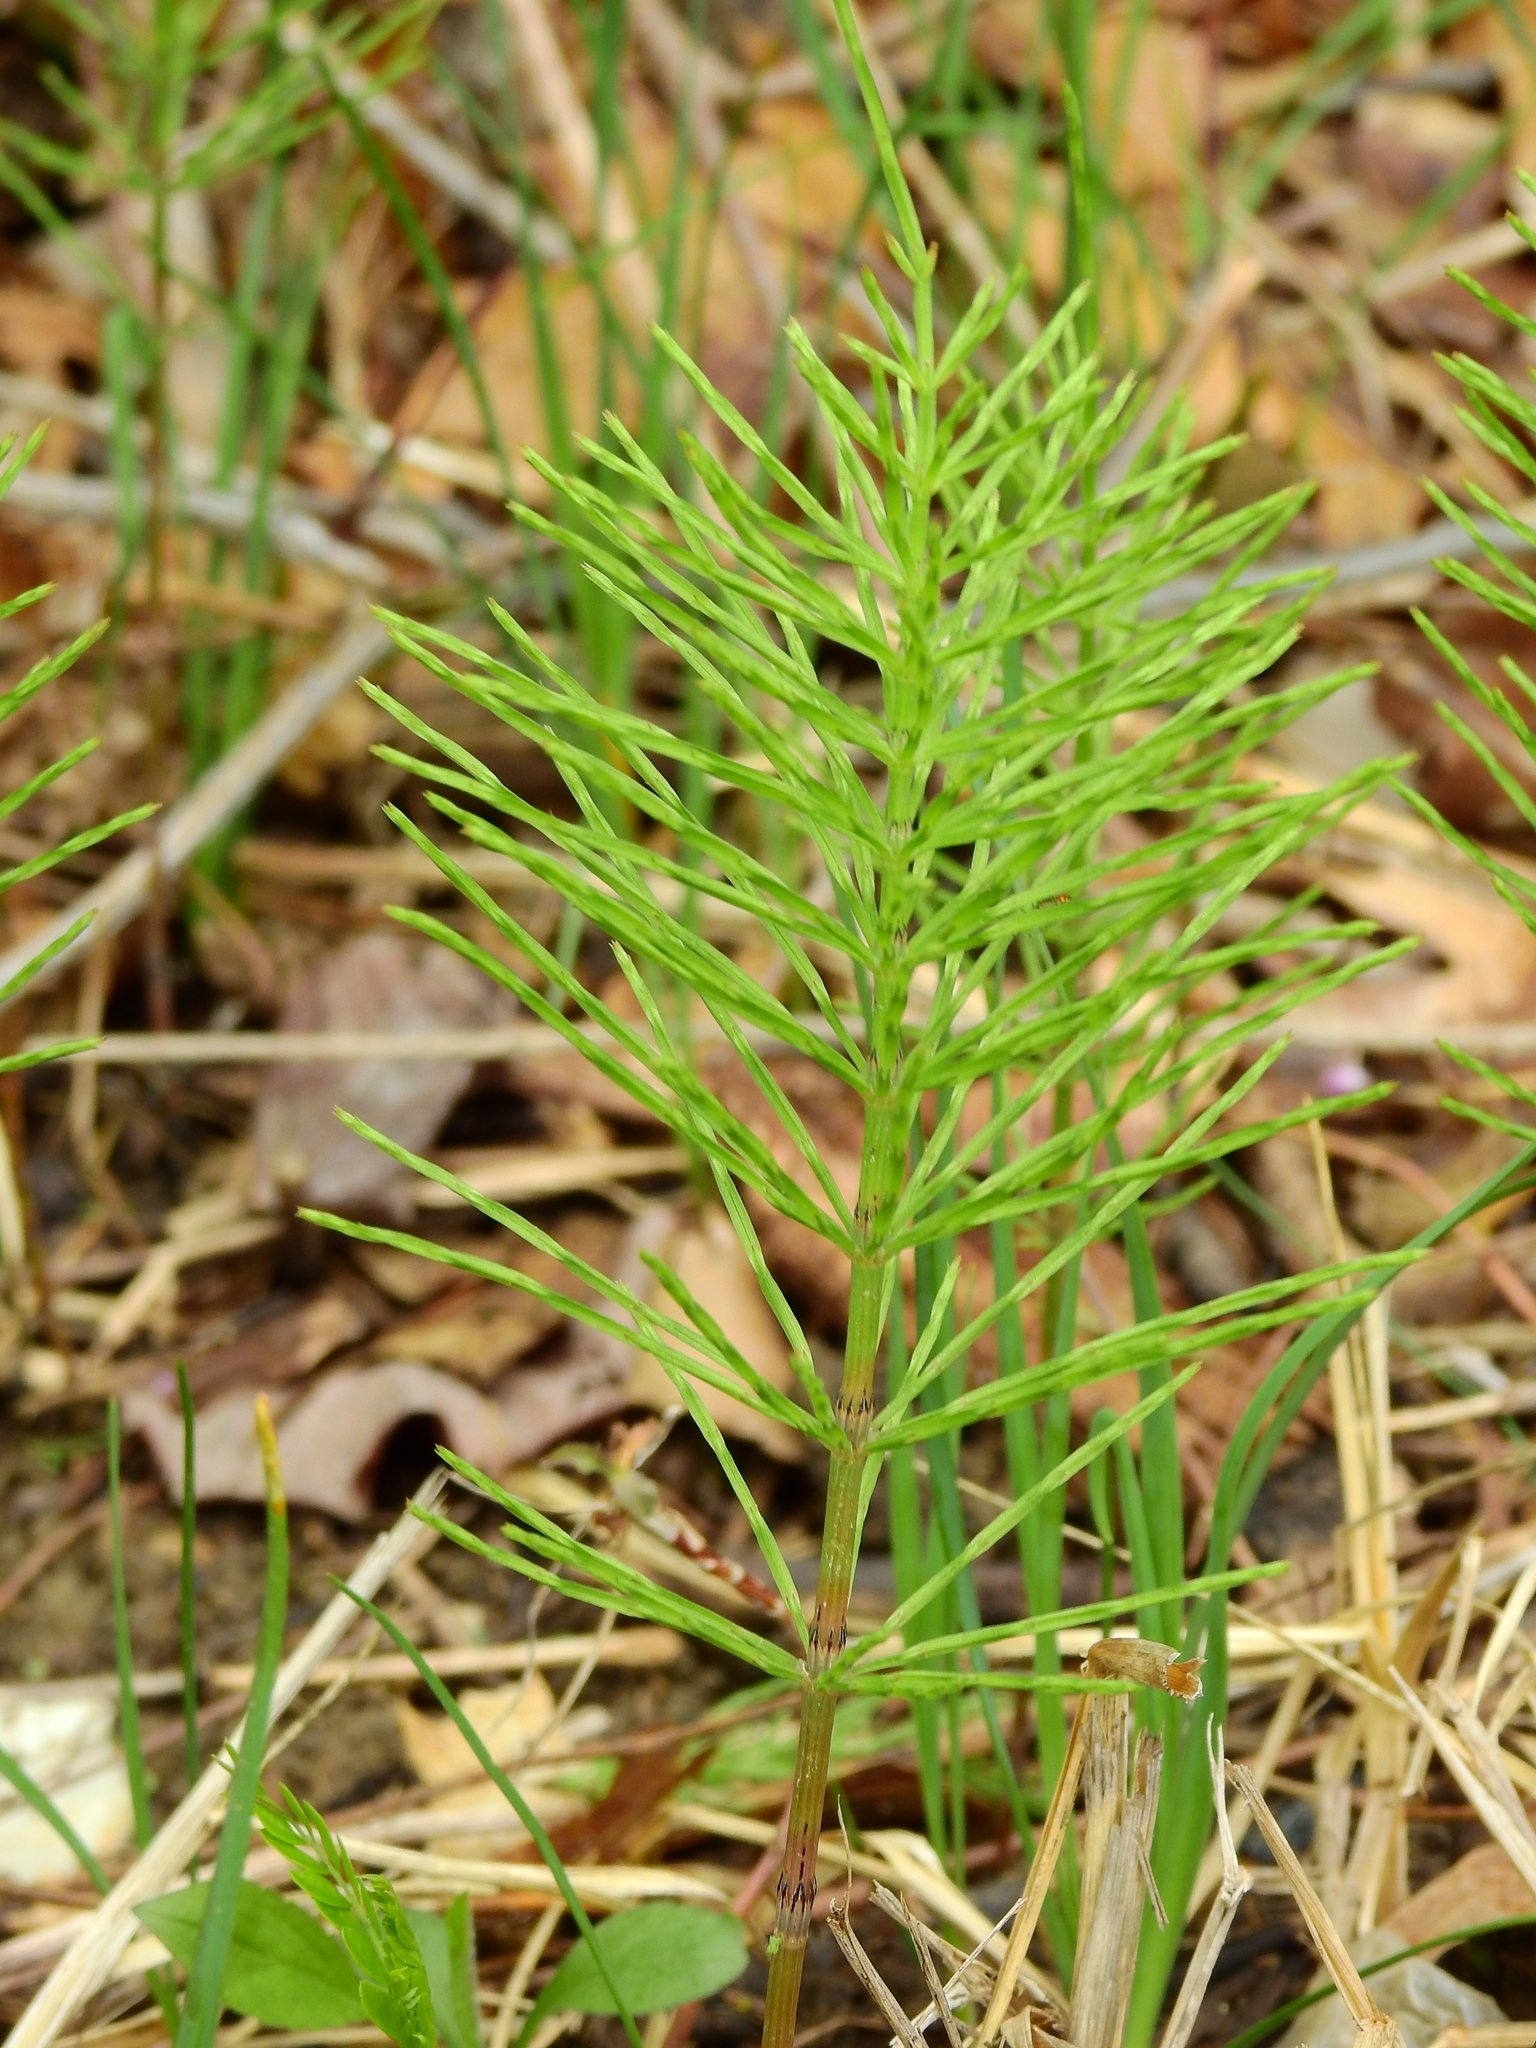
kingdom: Plantae
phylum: Tracheophyta
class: Polypodiopsida
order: Equisetales
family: Equisetaceae
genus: Equisetum
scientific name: Equisetum arvense
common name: Field horsetail
